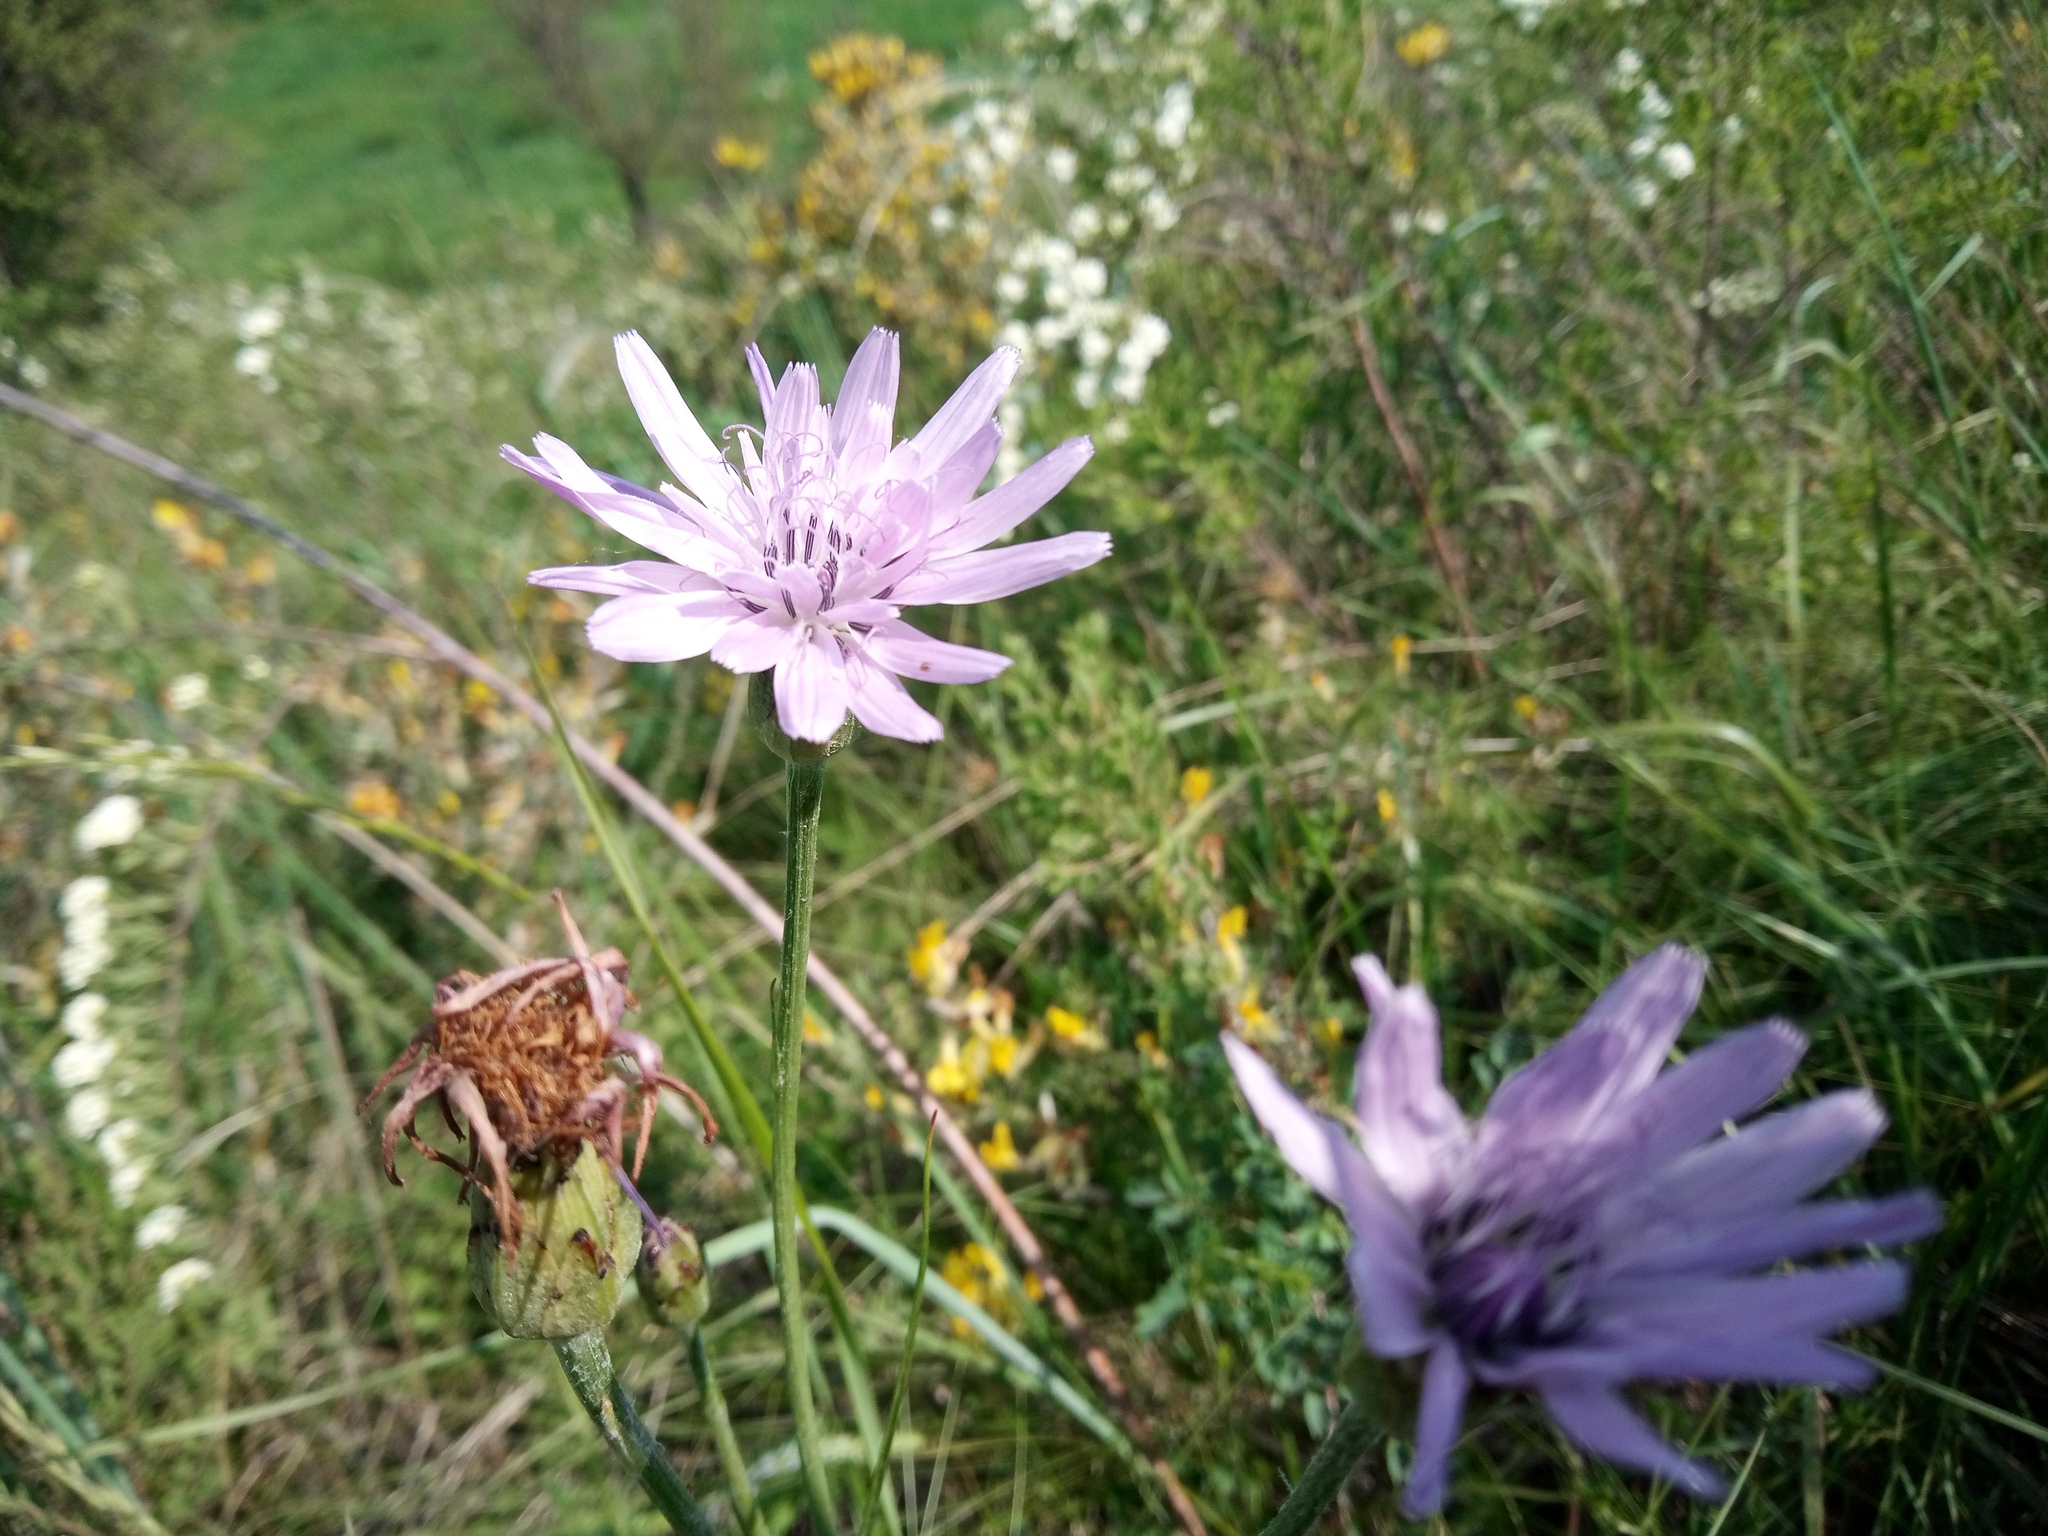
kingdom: Plantae
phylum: Tracheophyta
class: Magnoliopsida
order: Asterales
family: Asteraceae
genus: Scorzonera
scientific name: Scorzonera purpurea
